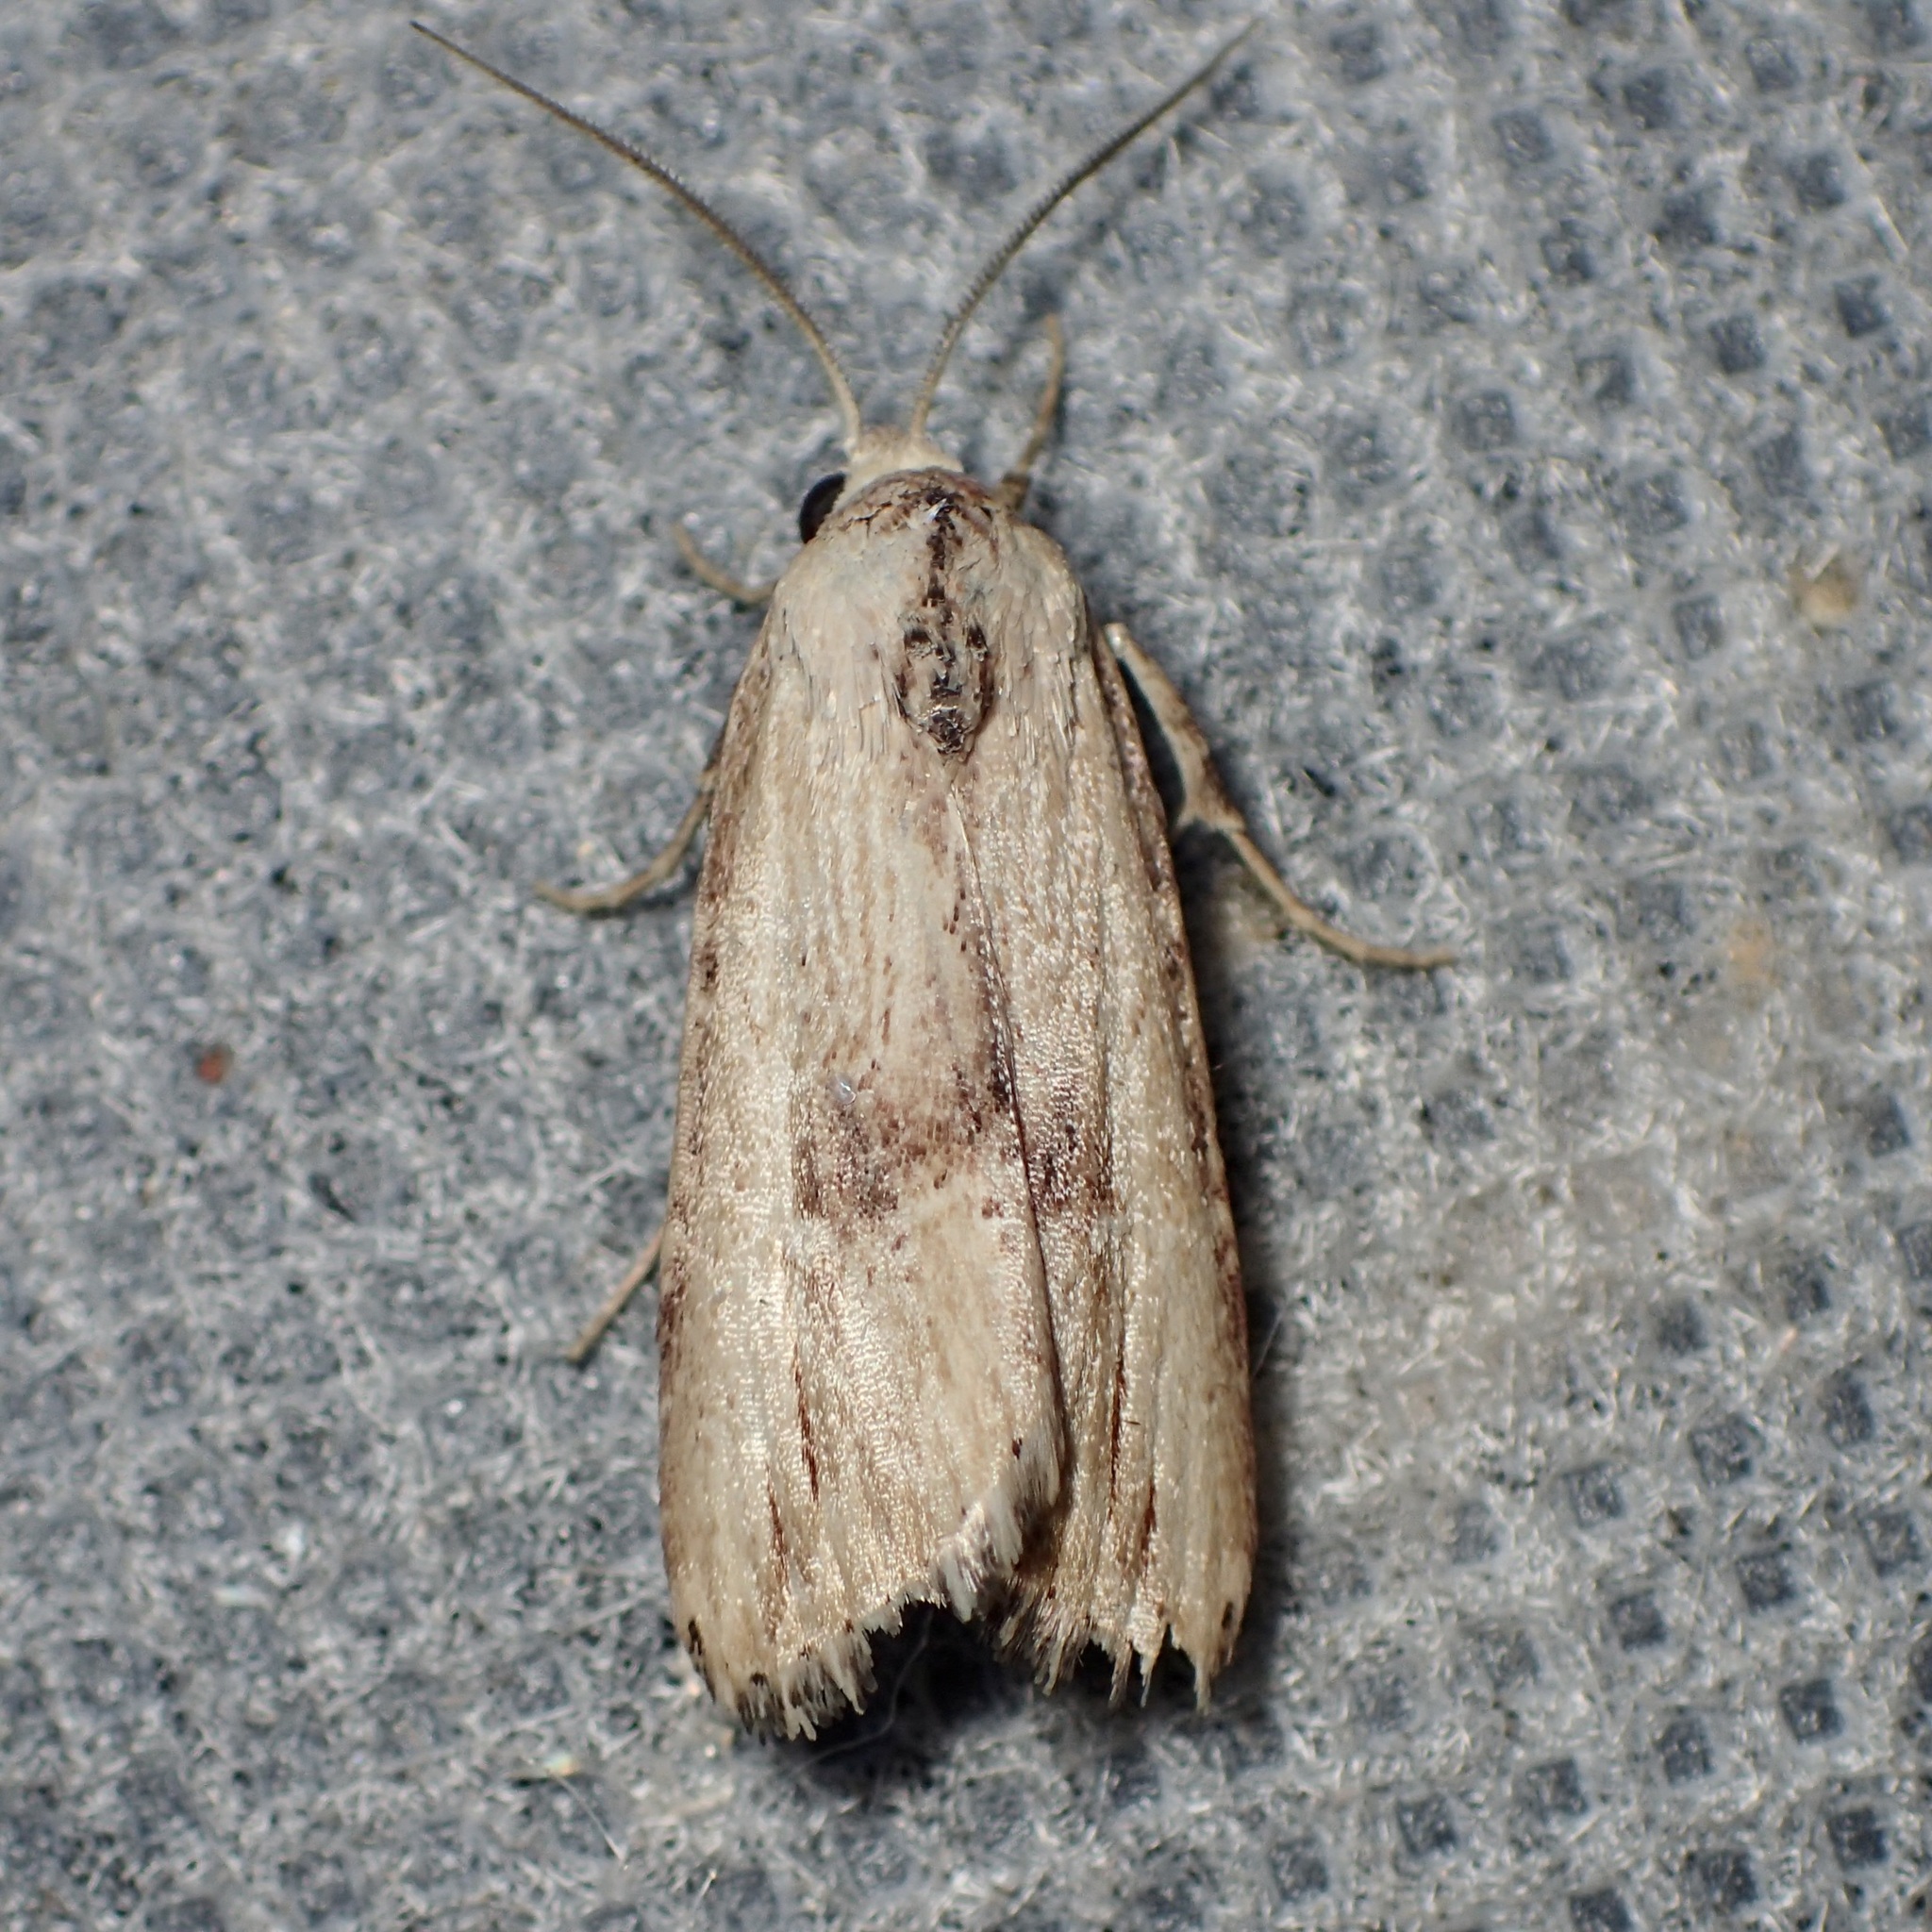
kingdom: Animalia
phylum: Arthropoda
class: Insecta
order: Lepidoptera
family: Noctuidae
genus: Crambodes
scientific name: Crambodes talidiformis
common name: Verbena moth
